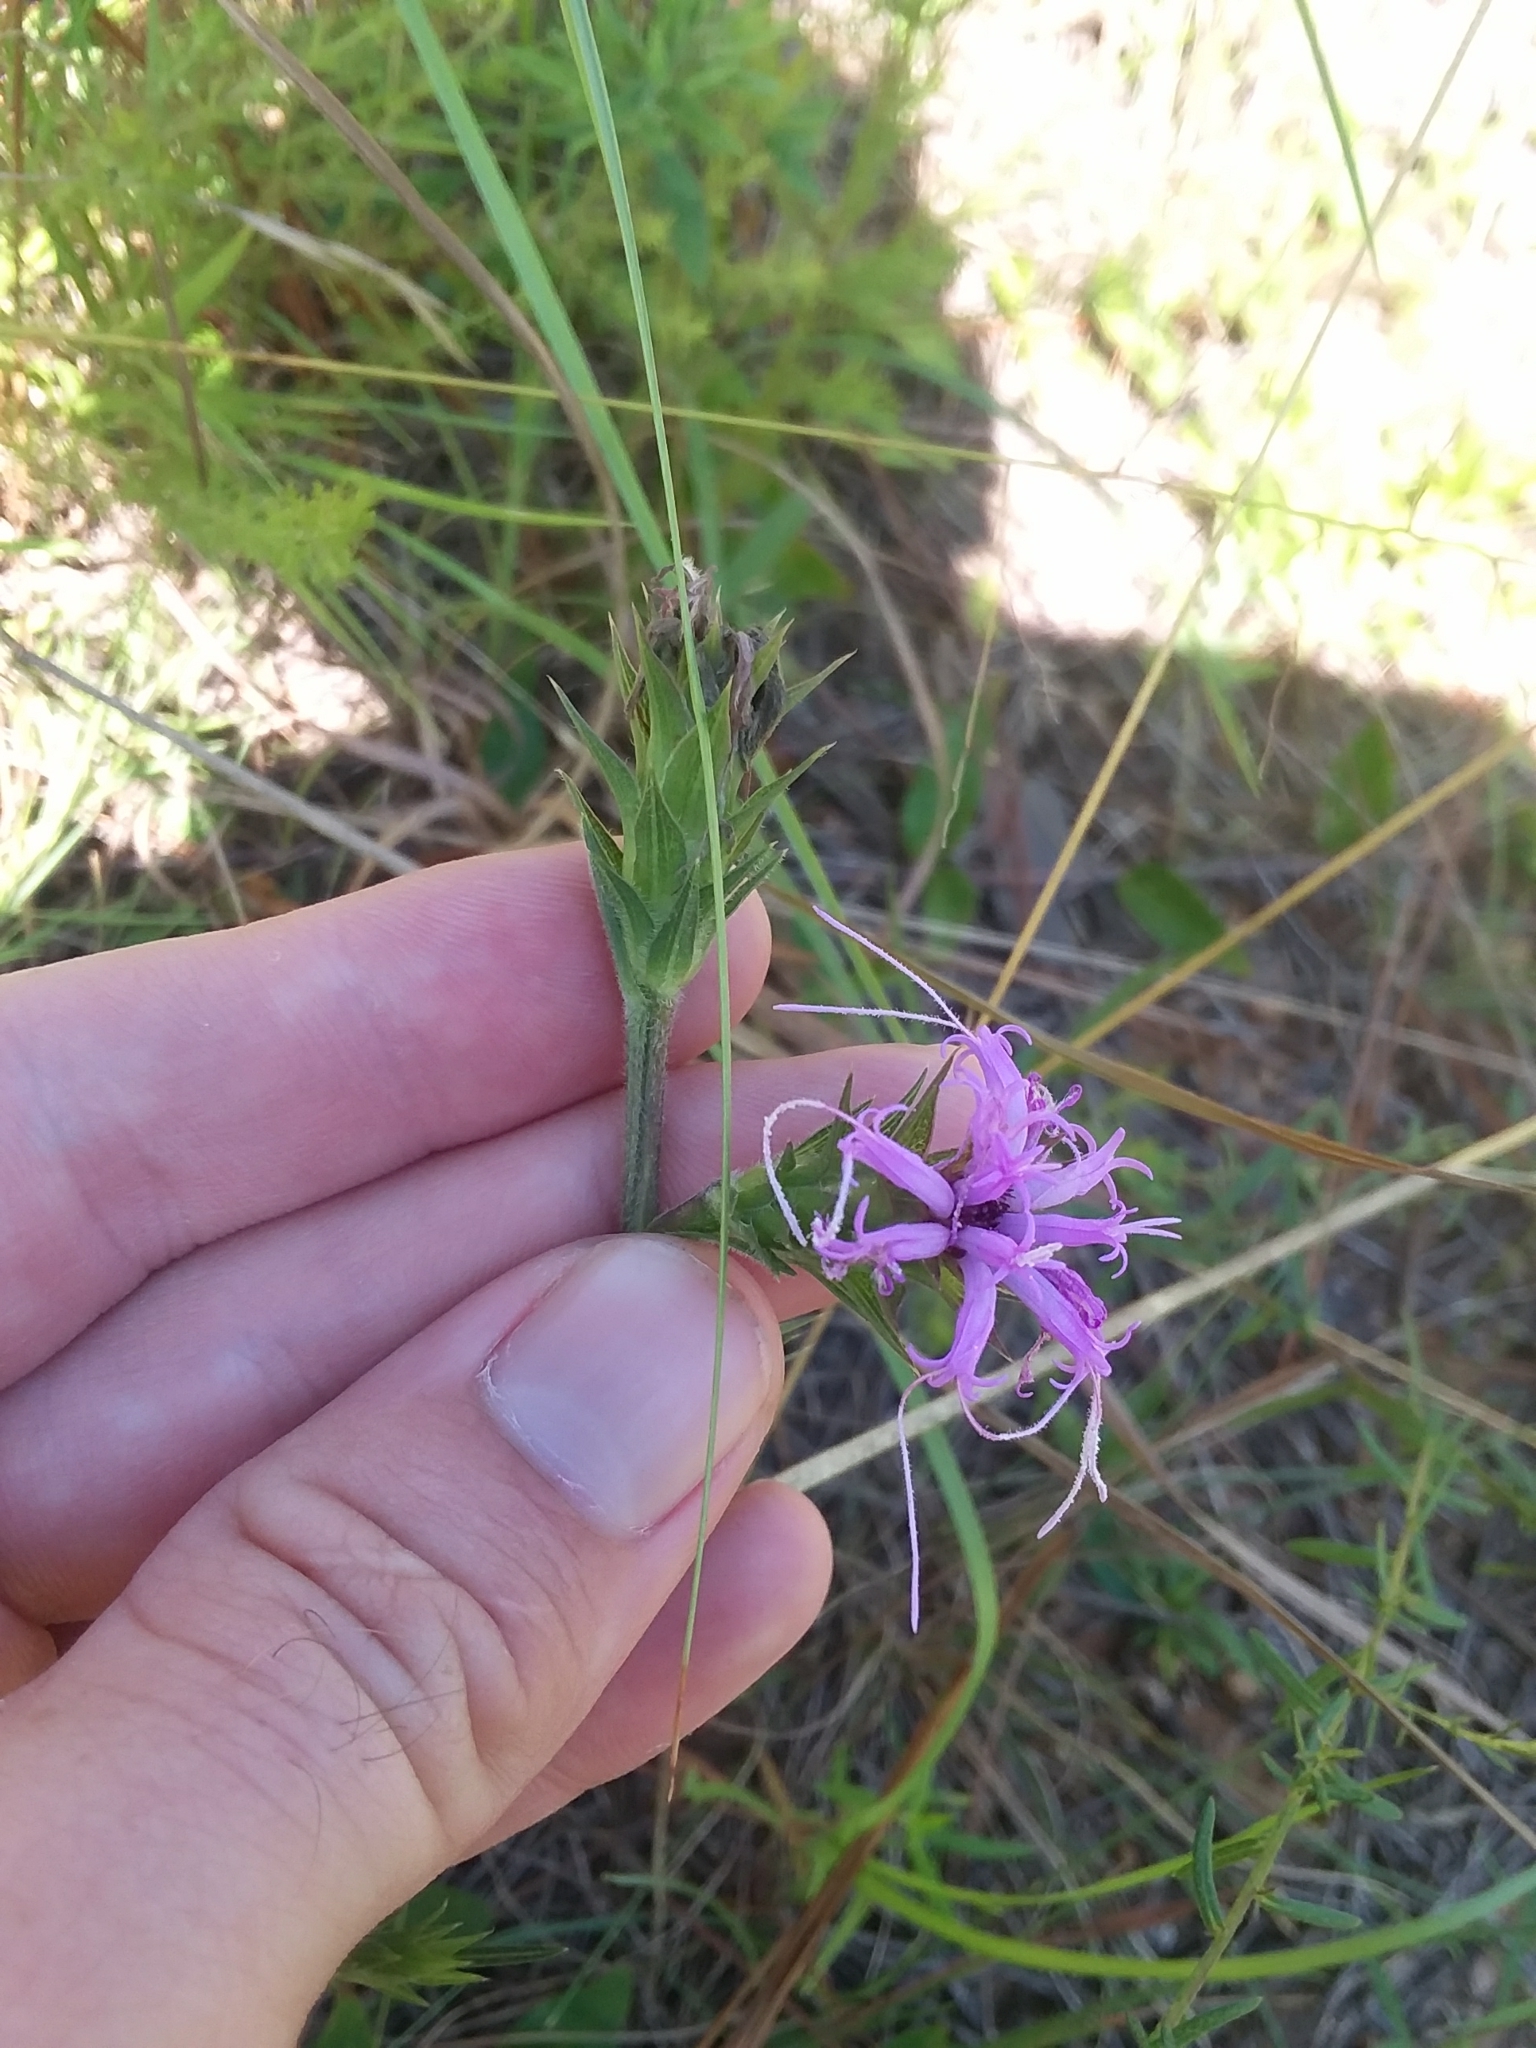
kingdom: Plantae
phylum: Tracheophyta
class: Magnoliopsida
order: Asterales
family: Asteraceae
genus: Liatris
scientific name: Liatris squarrosa
